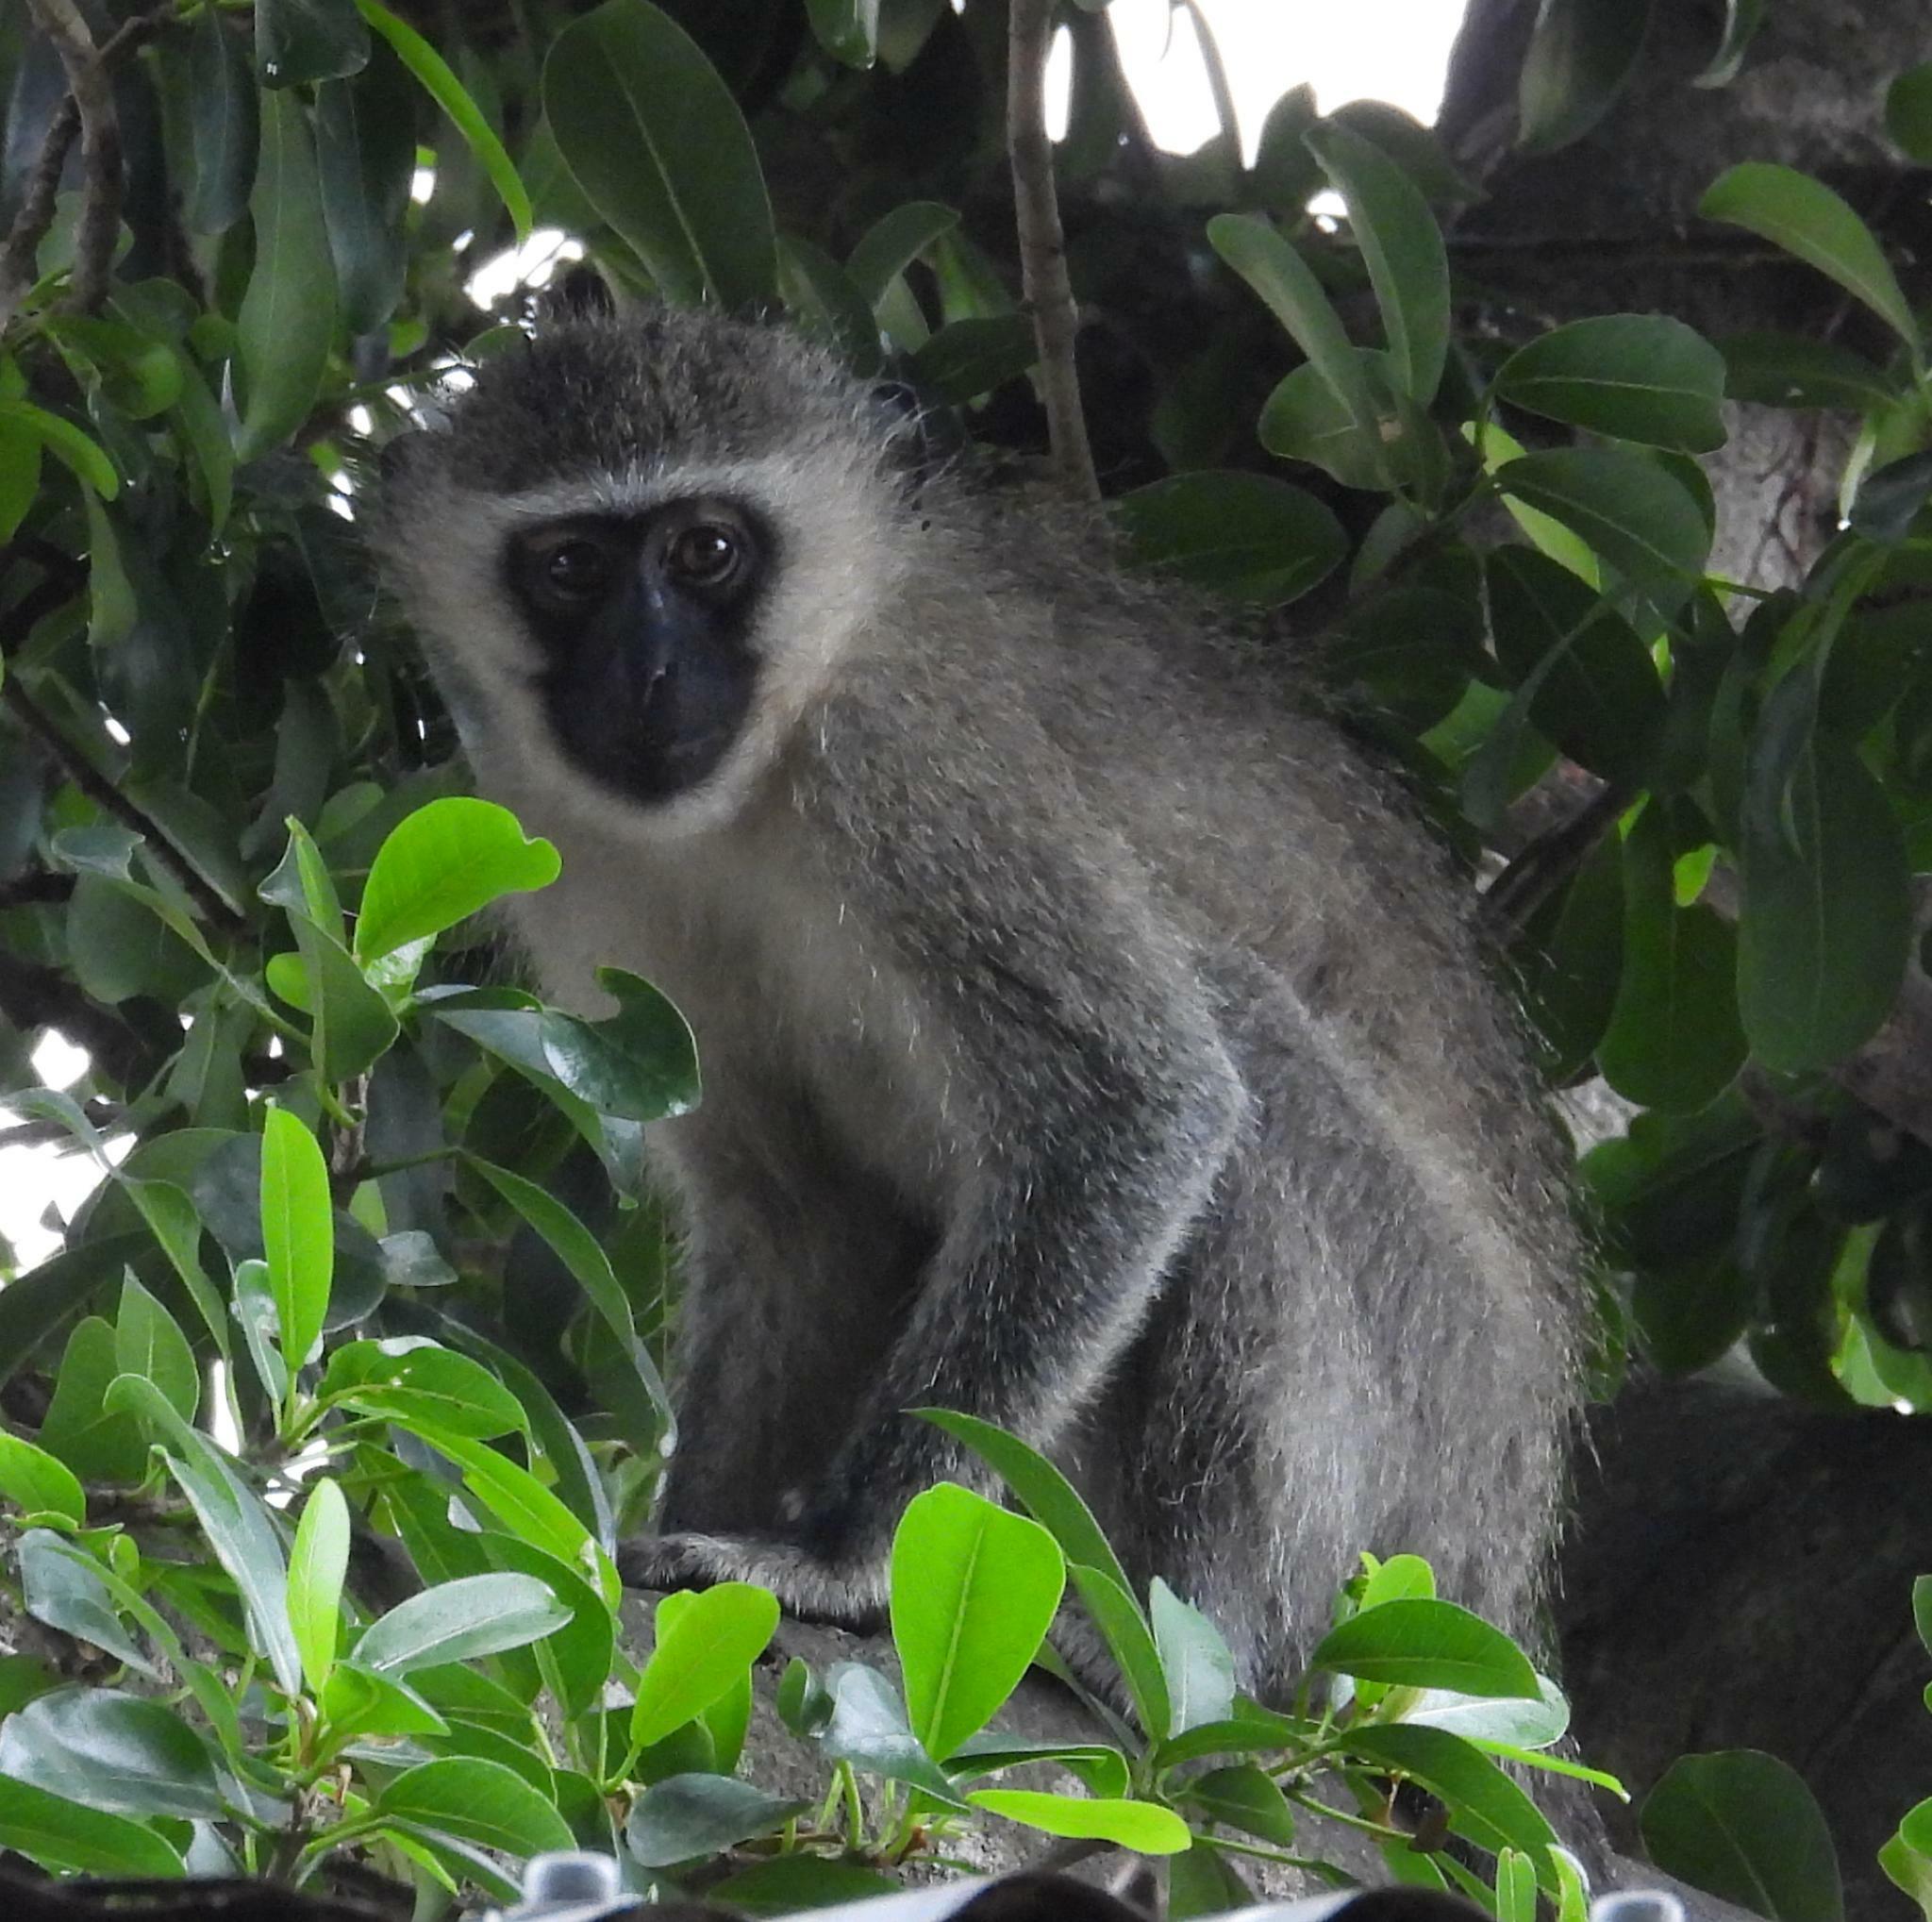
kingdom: Animalia
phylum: Chordata
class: Mammalia
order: Primates
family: Cercopithecidae
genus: Chlorocebus
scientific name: Chlorocebus pygerythrus
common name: Vervet monkey
